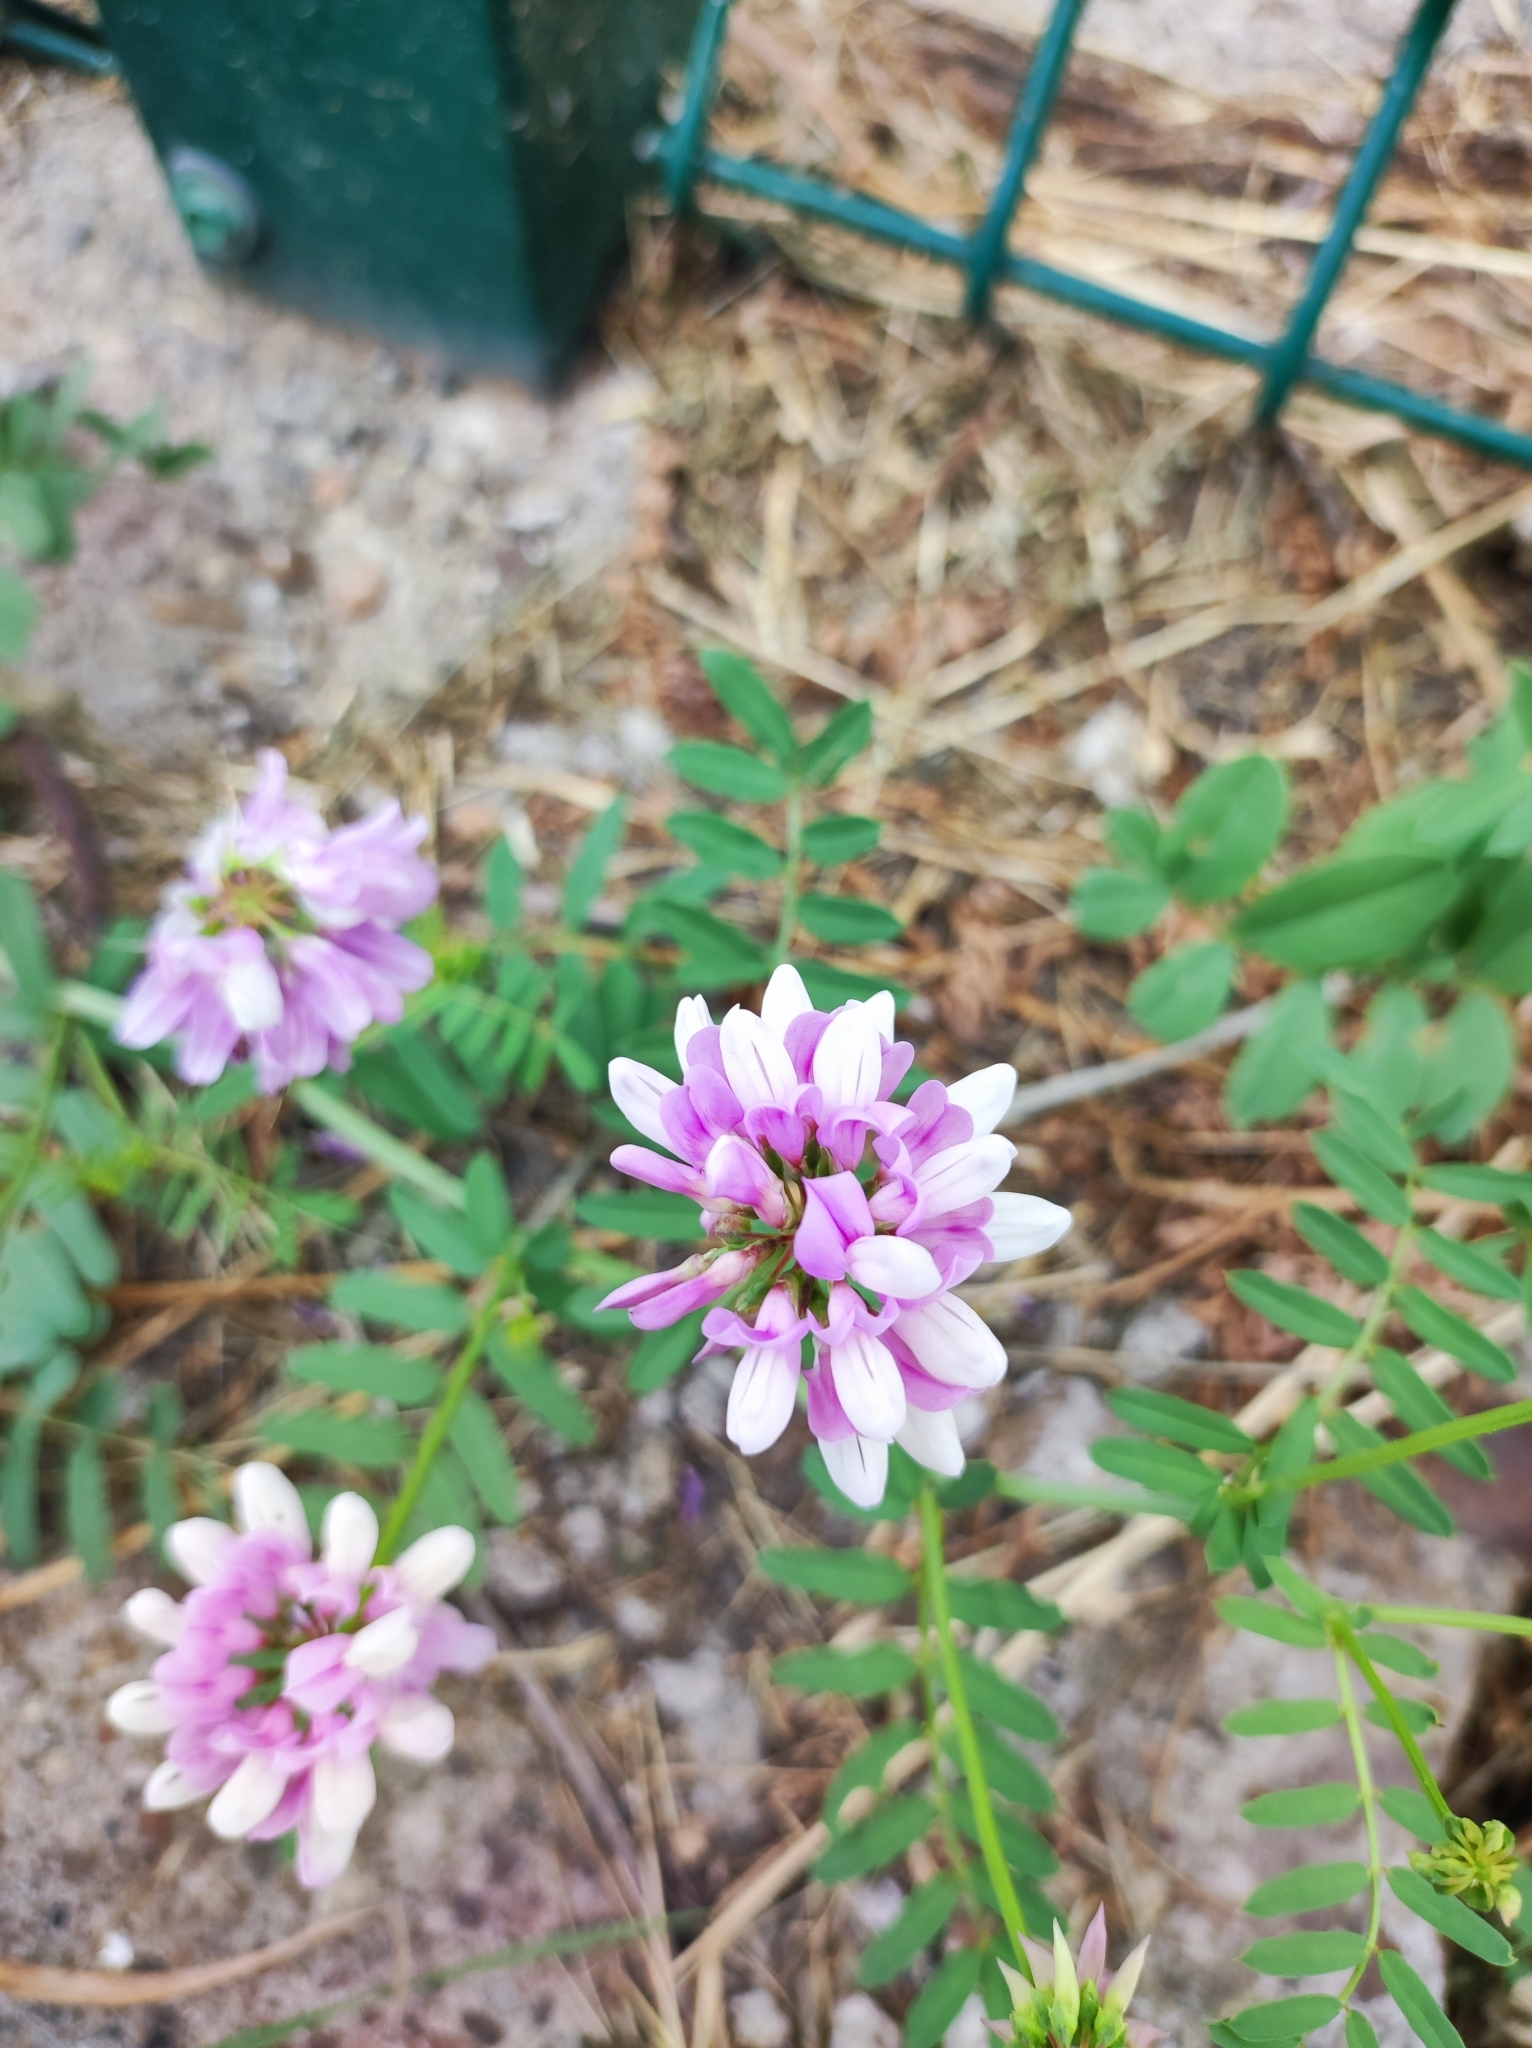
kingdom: Plantae
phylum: Tracheophyta
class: Magnoliopsida
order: Fabales
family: Fabaceae
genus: Coronilla
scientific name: Coronilla varia
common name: Crownvetch
